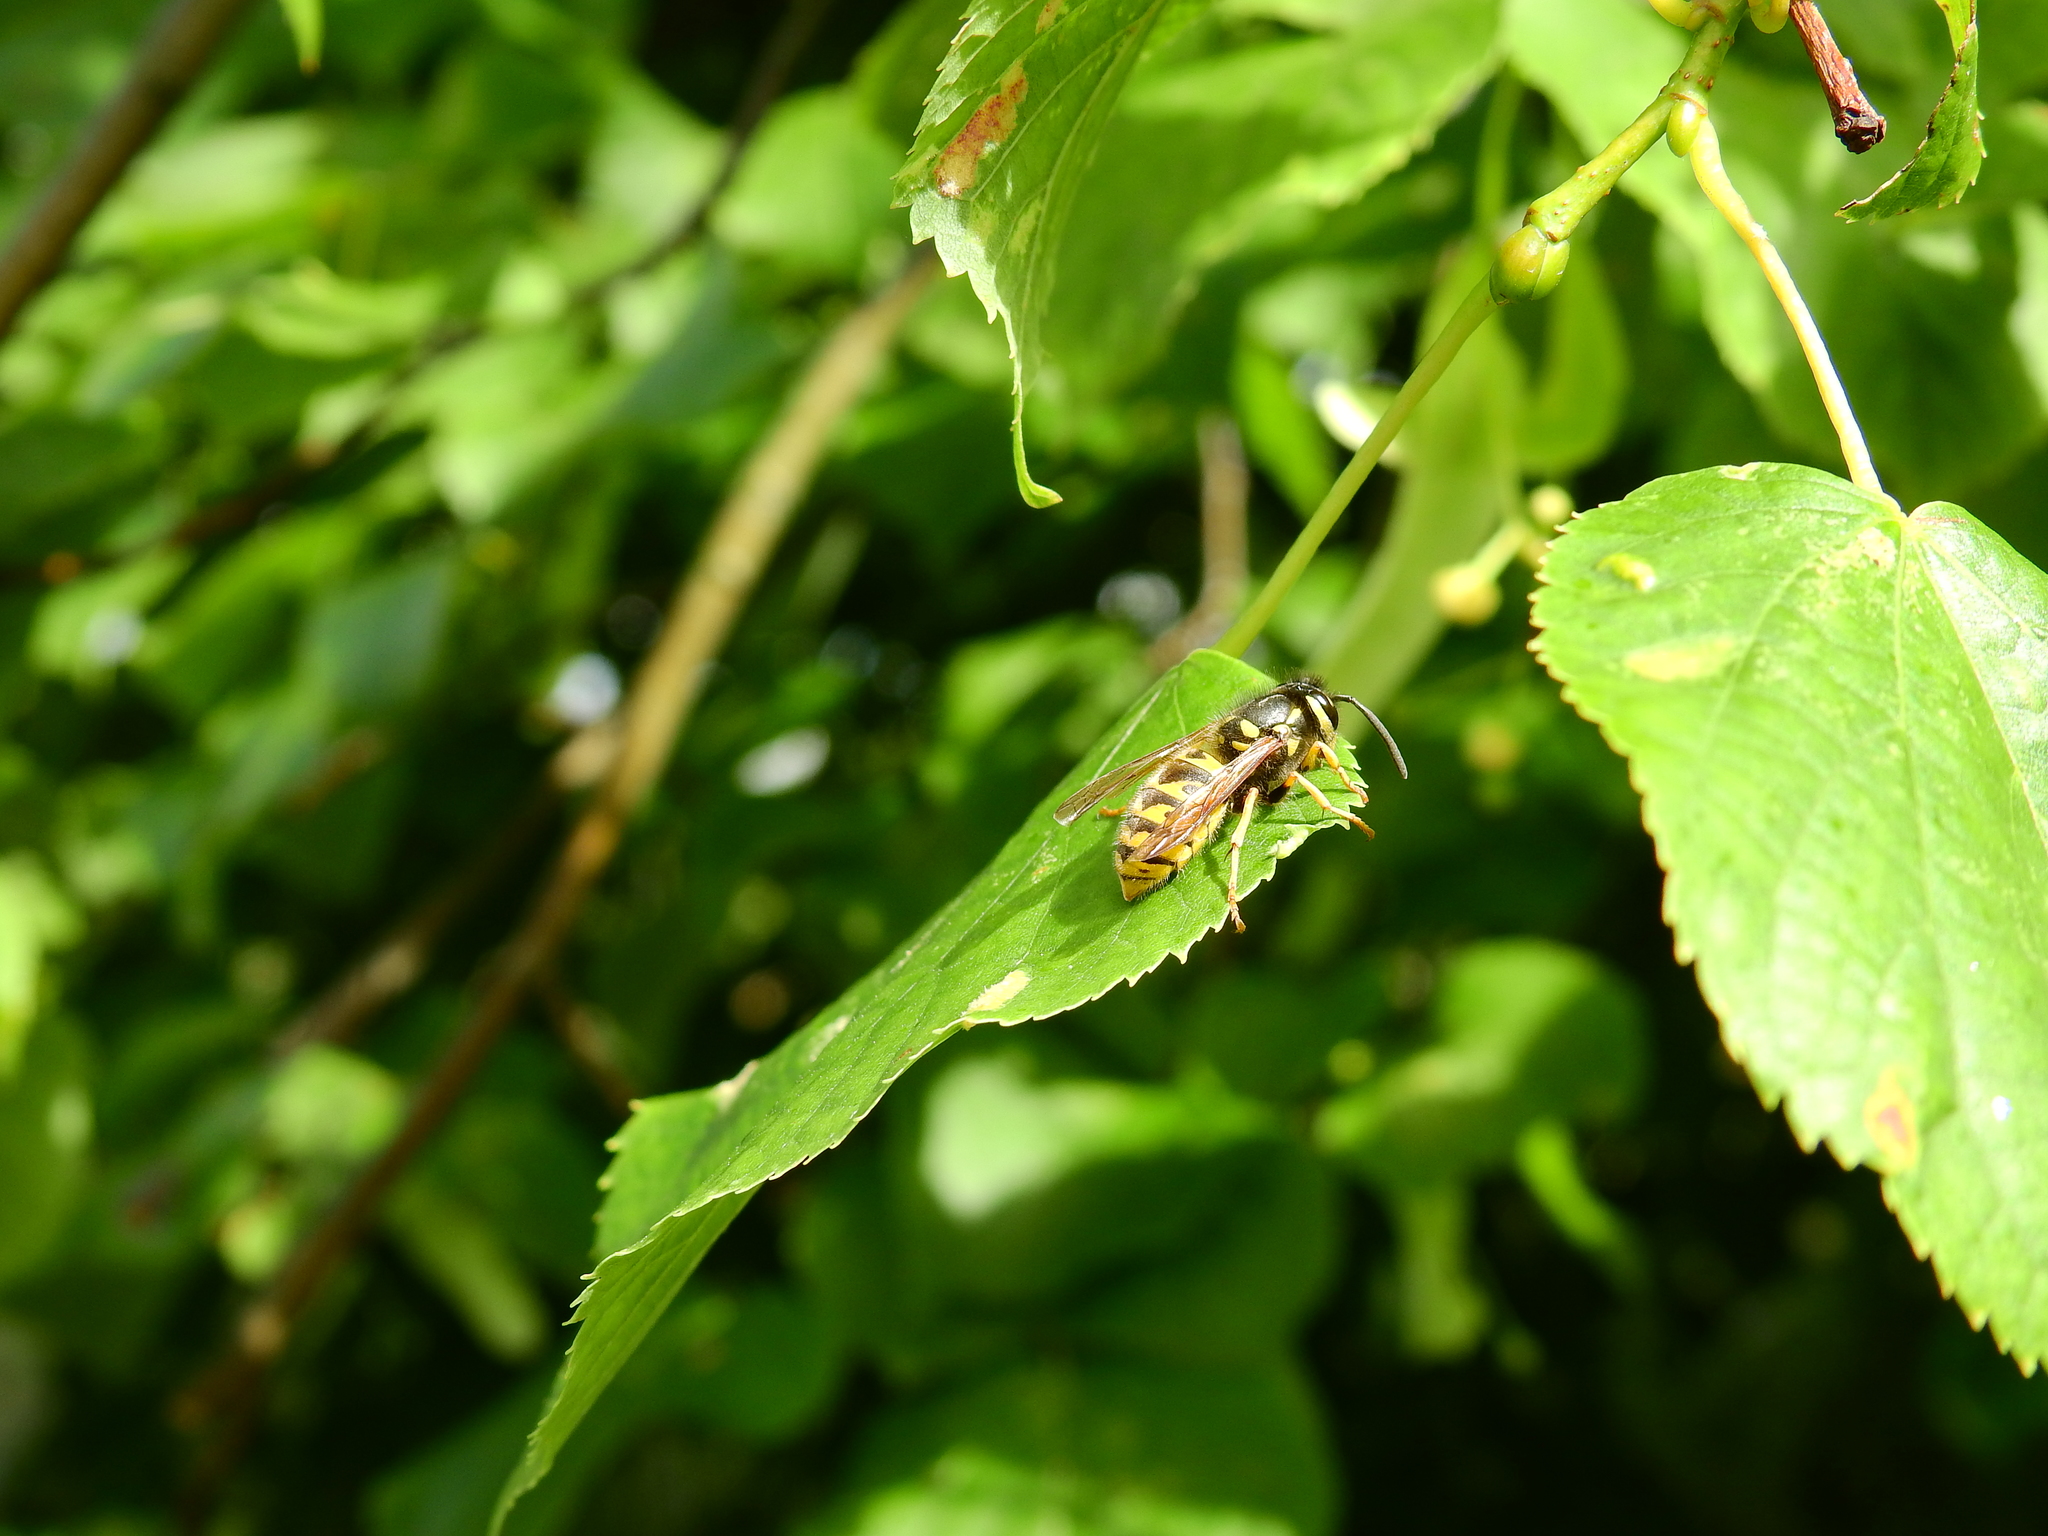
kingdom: Animalia
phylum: Arthropoda
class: Insecta
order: Hymenoptera
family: Vespidae
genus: Vespula
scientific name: Vespula germanica
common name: German wasp
